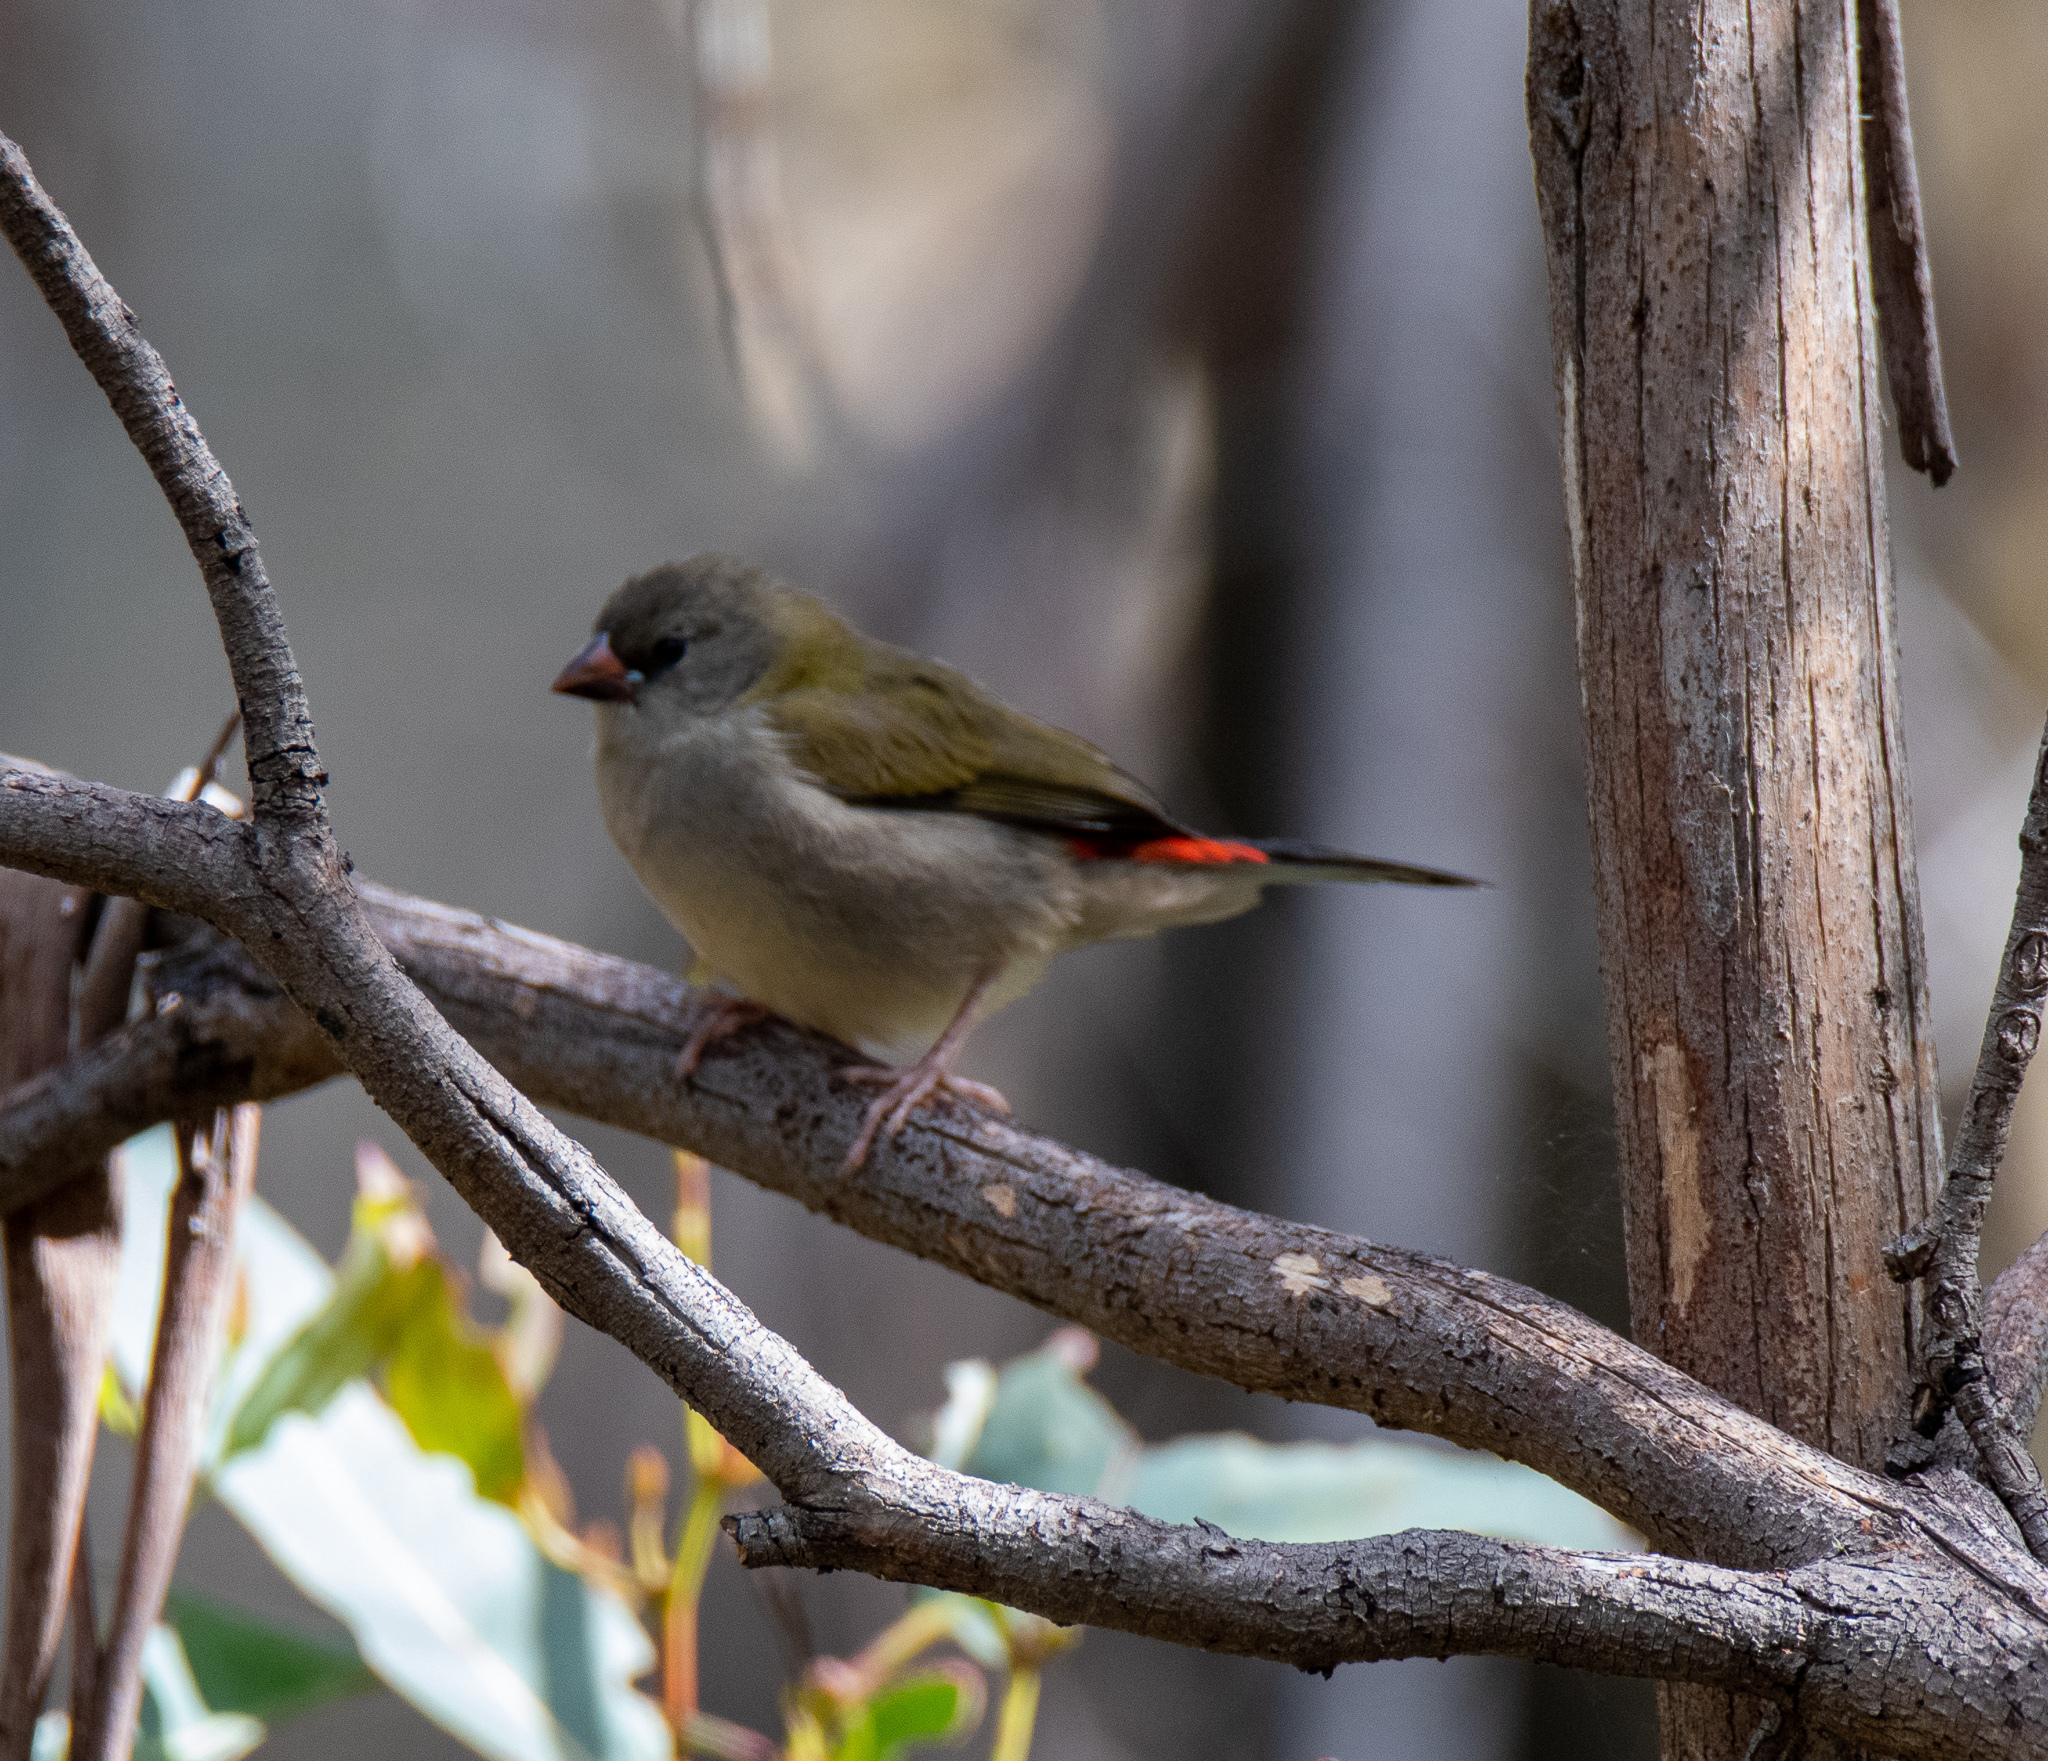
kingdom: Animalia
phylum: Chordata
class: Aves
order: Passeriformes
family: Estrildidae
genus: Neochmia
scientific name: Neochmia temporalis
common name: Red-browed finch
